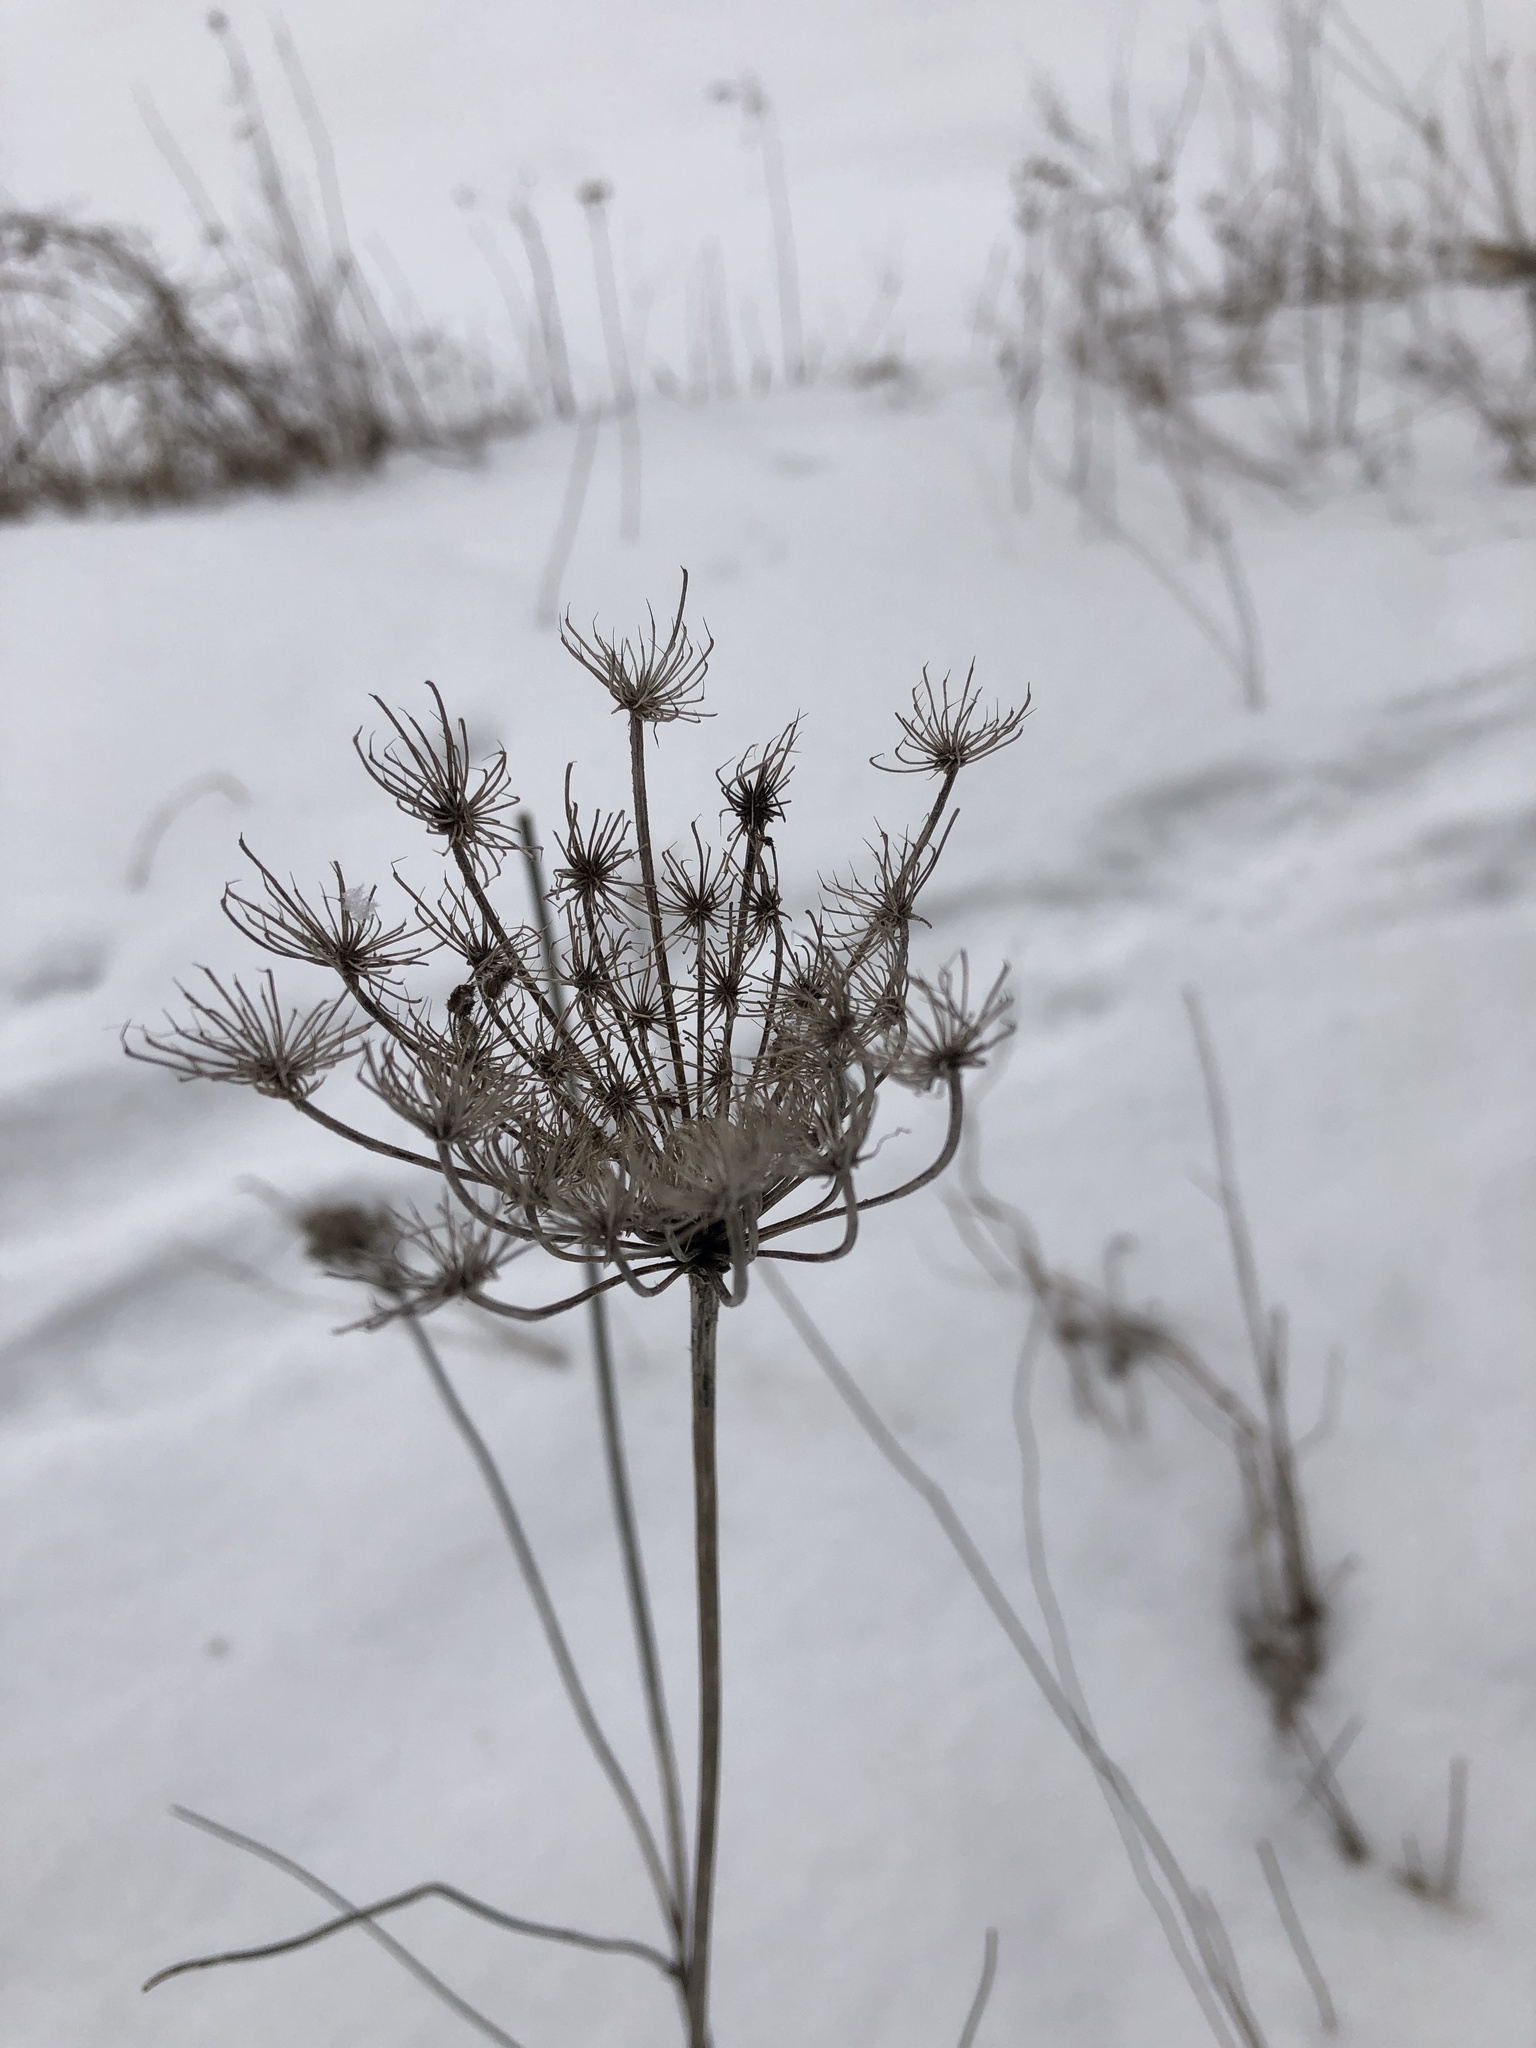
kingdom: Plantae
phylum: Tracheophyta
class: Magnoliopsida
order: Apiales
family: Apiaceae
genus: Daucus
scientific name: Daucus carota
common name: Wild carrot
